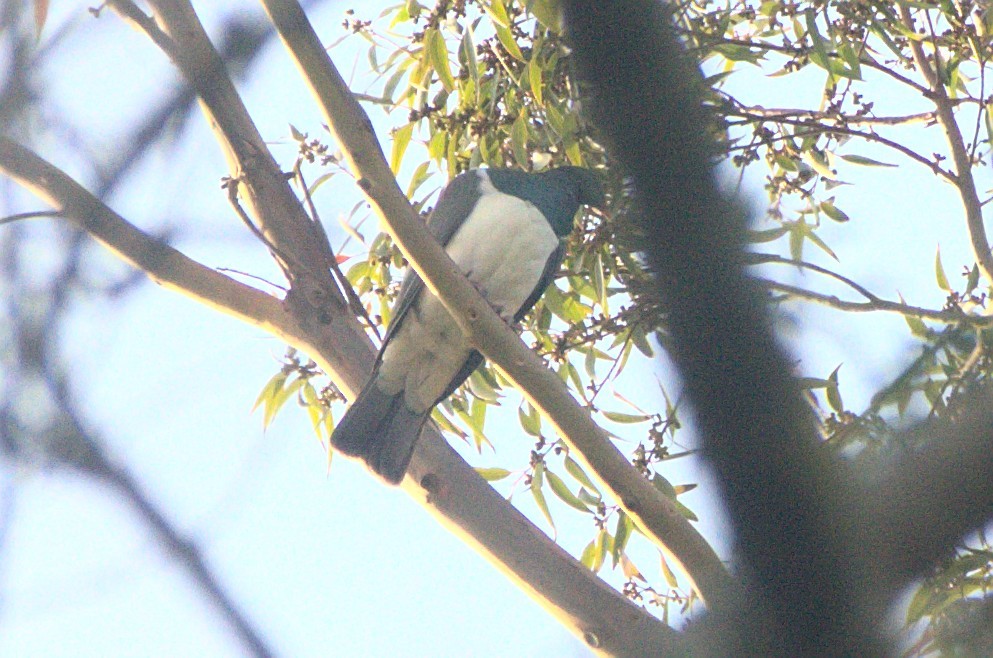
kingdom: Animalia
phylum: Chordata
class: Aves
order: Columbiformes
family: Columbidae
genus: Hemiphaga
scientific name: Hemiphaga novaeseelandiae
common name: New zealand pigeon
